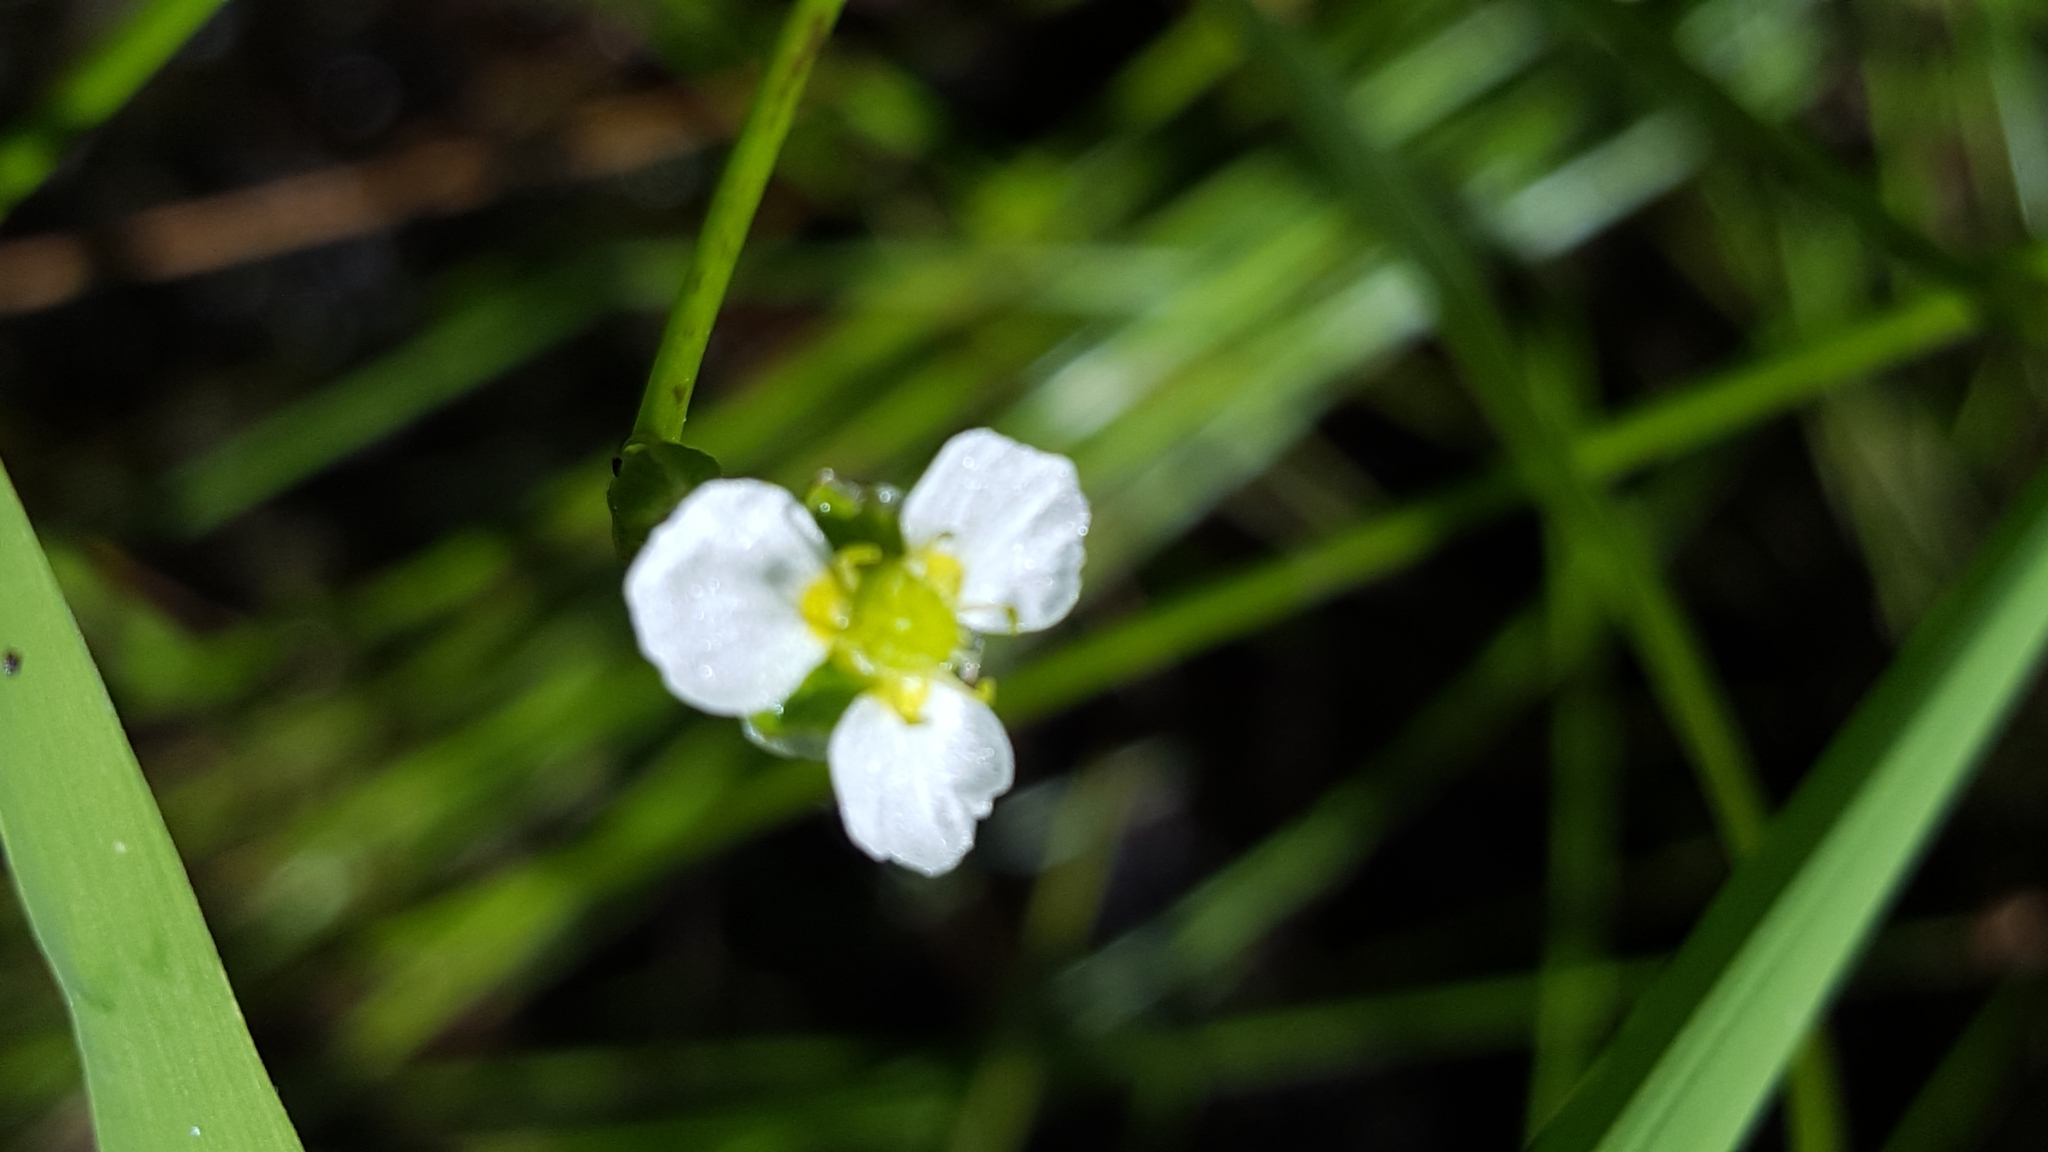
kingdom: Plantae
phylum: Tracheophyta
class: Liliopsida
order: Alismatales
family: Alismataceae
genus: Alisma
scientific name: Alisma triviale
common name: Northern water-plantain
